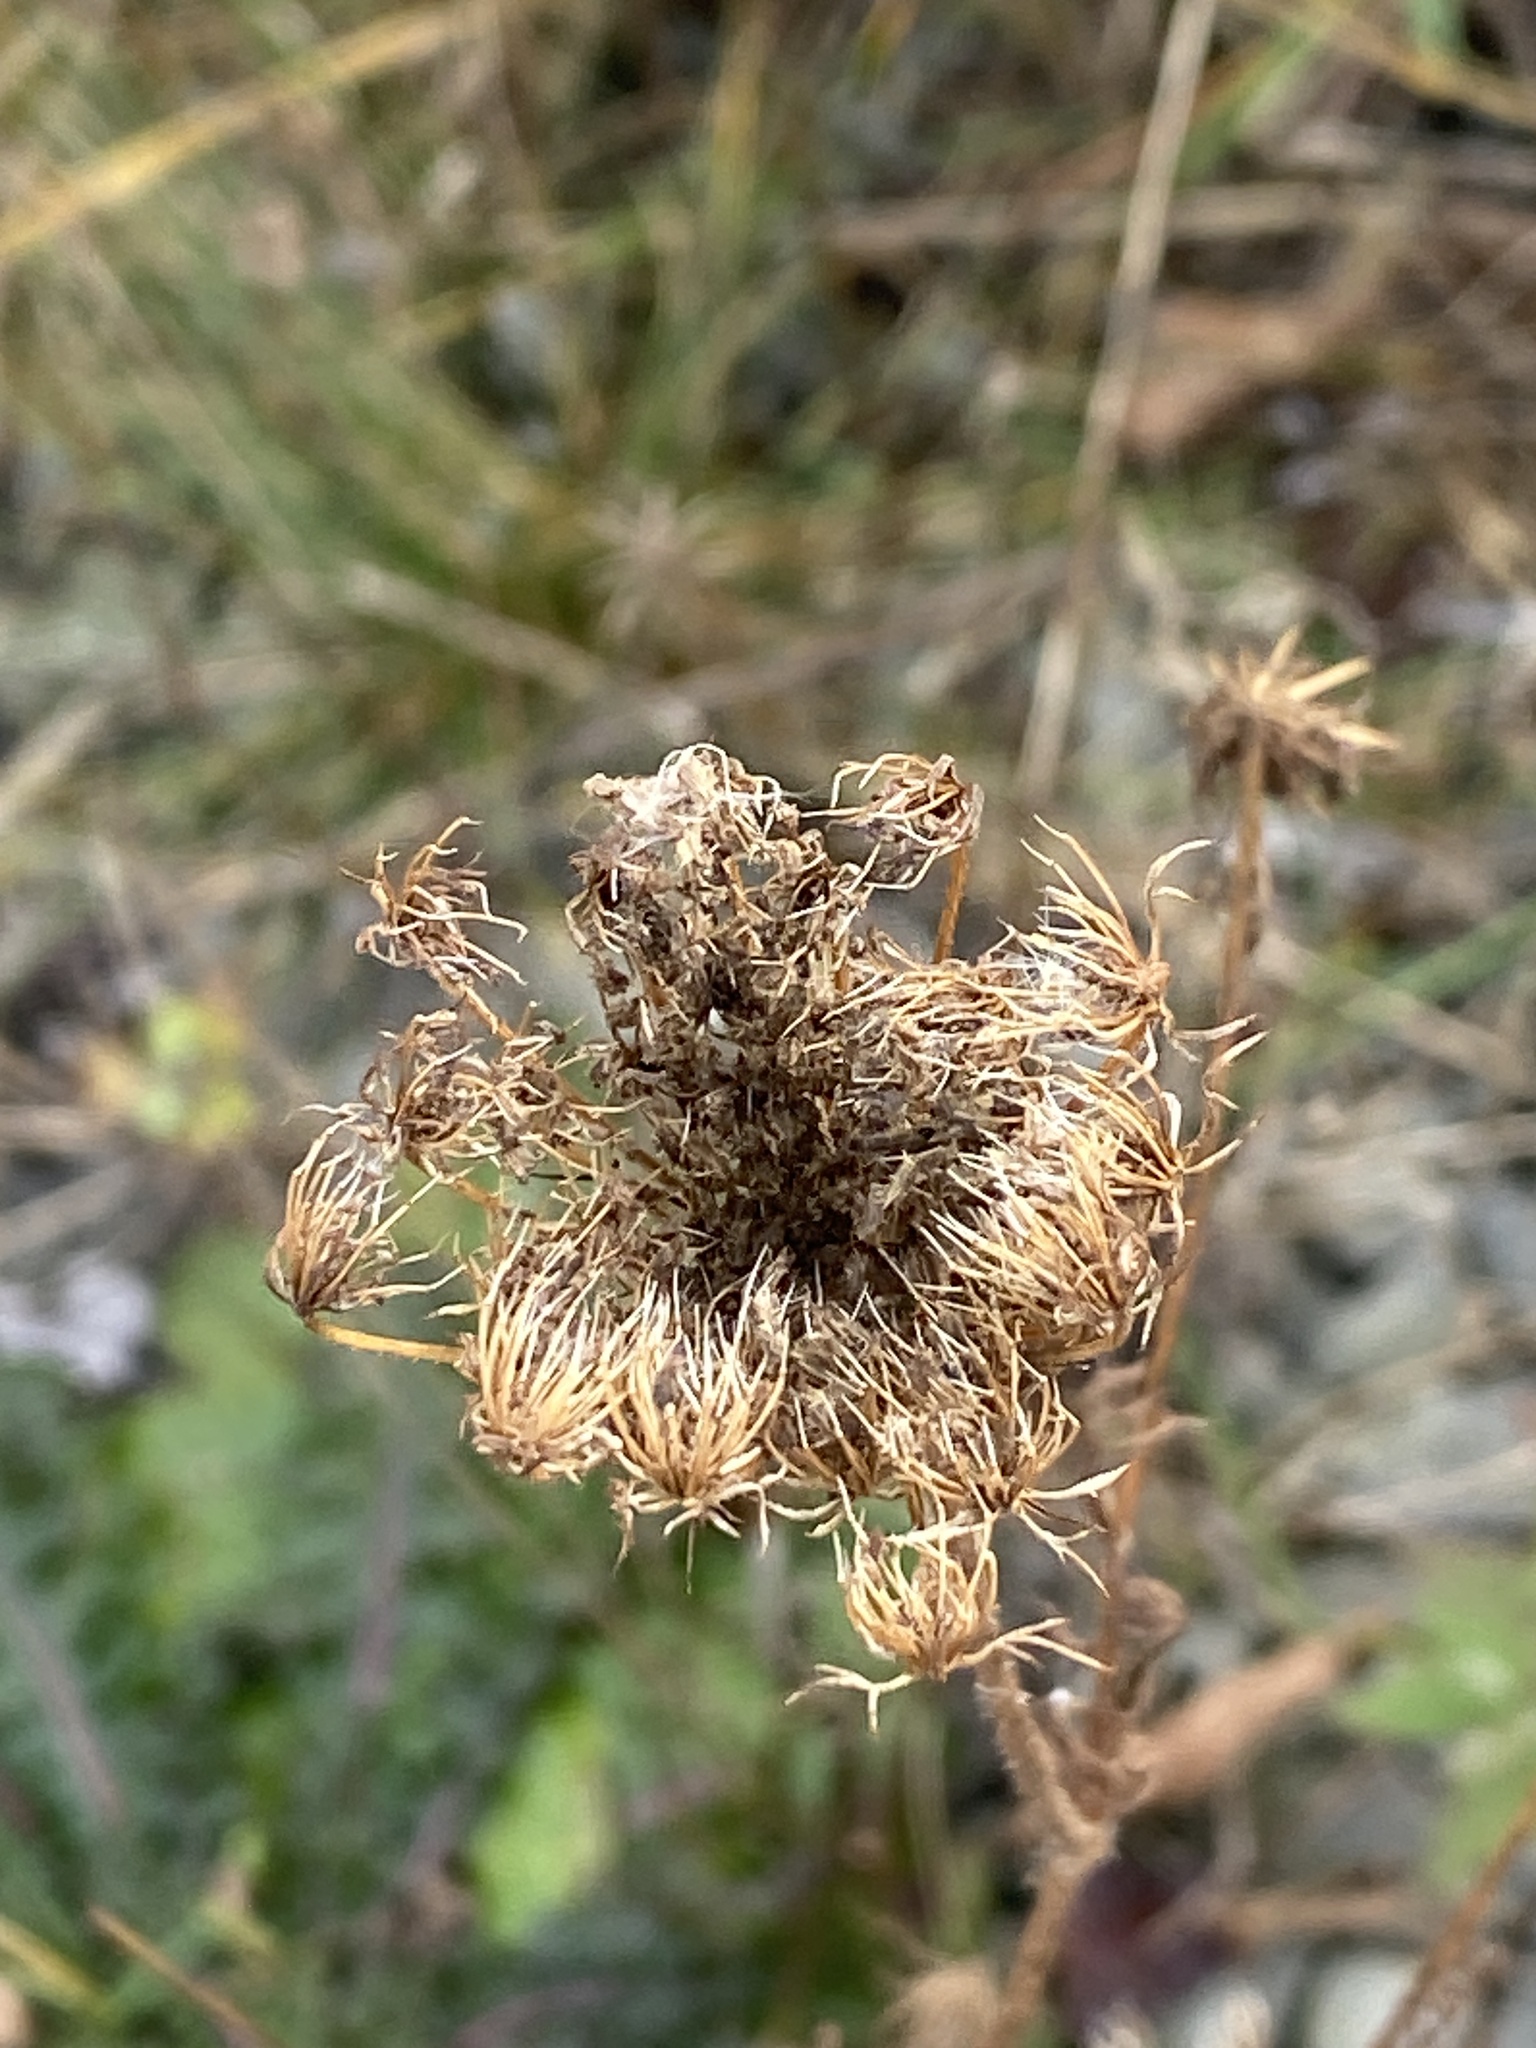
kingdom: Plantae
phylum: Tracheophyta
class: Magnoliopsida
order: Apiales
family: Apiaceae
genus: Daucus
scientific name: Daucus carota
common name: Wild carrot
